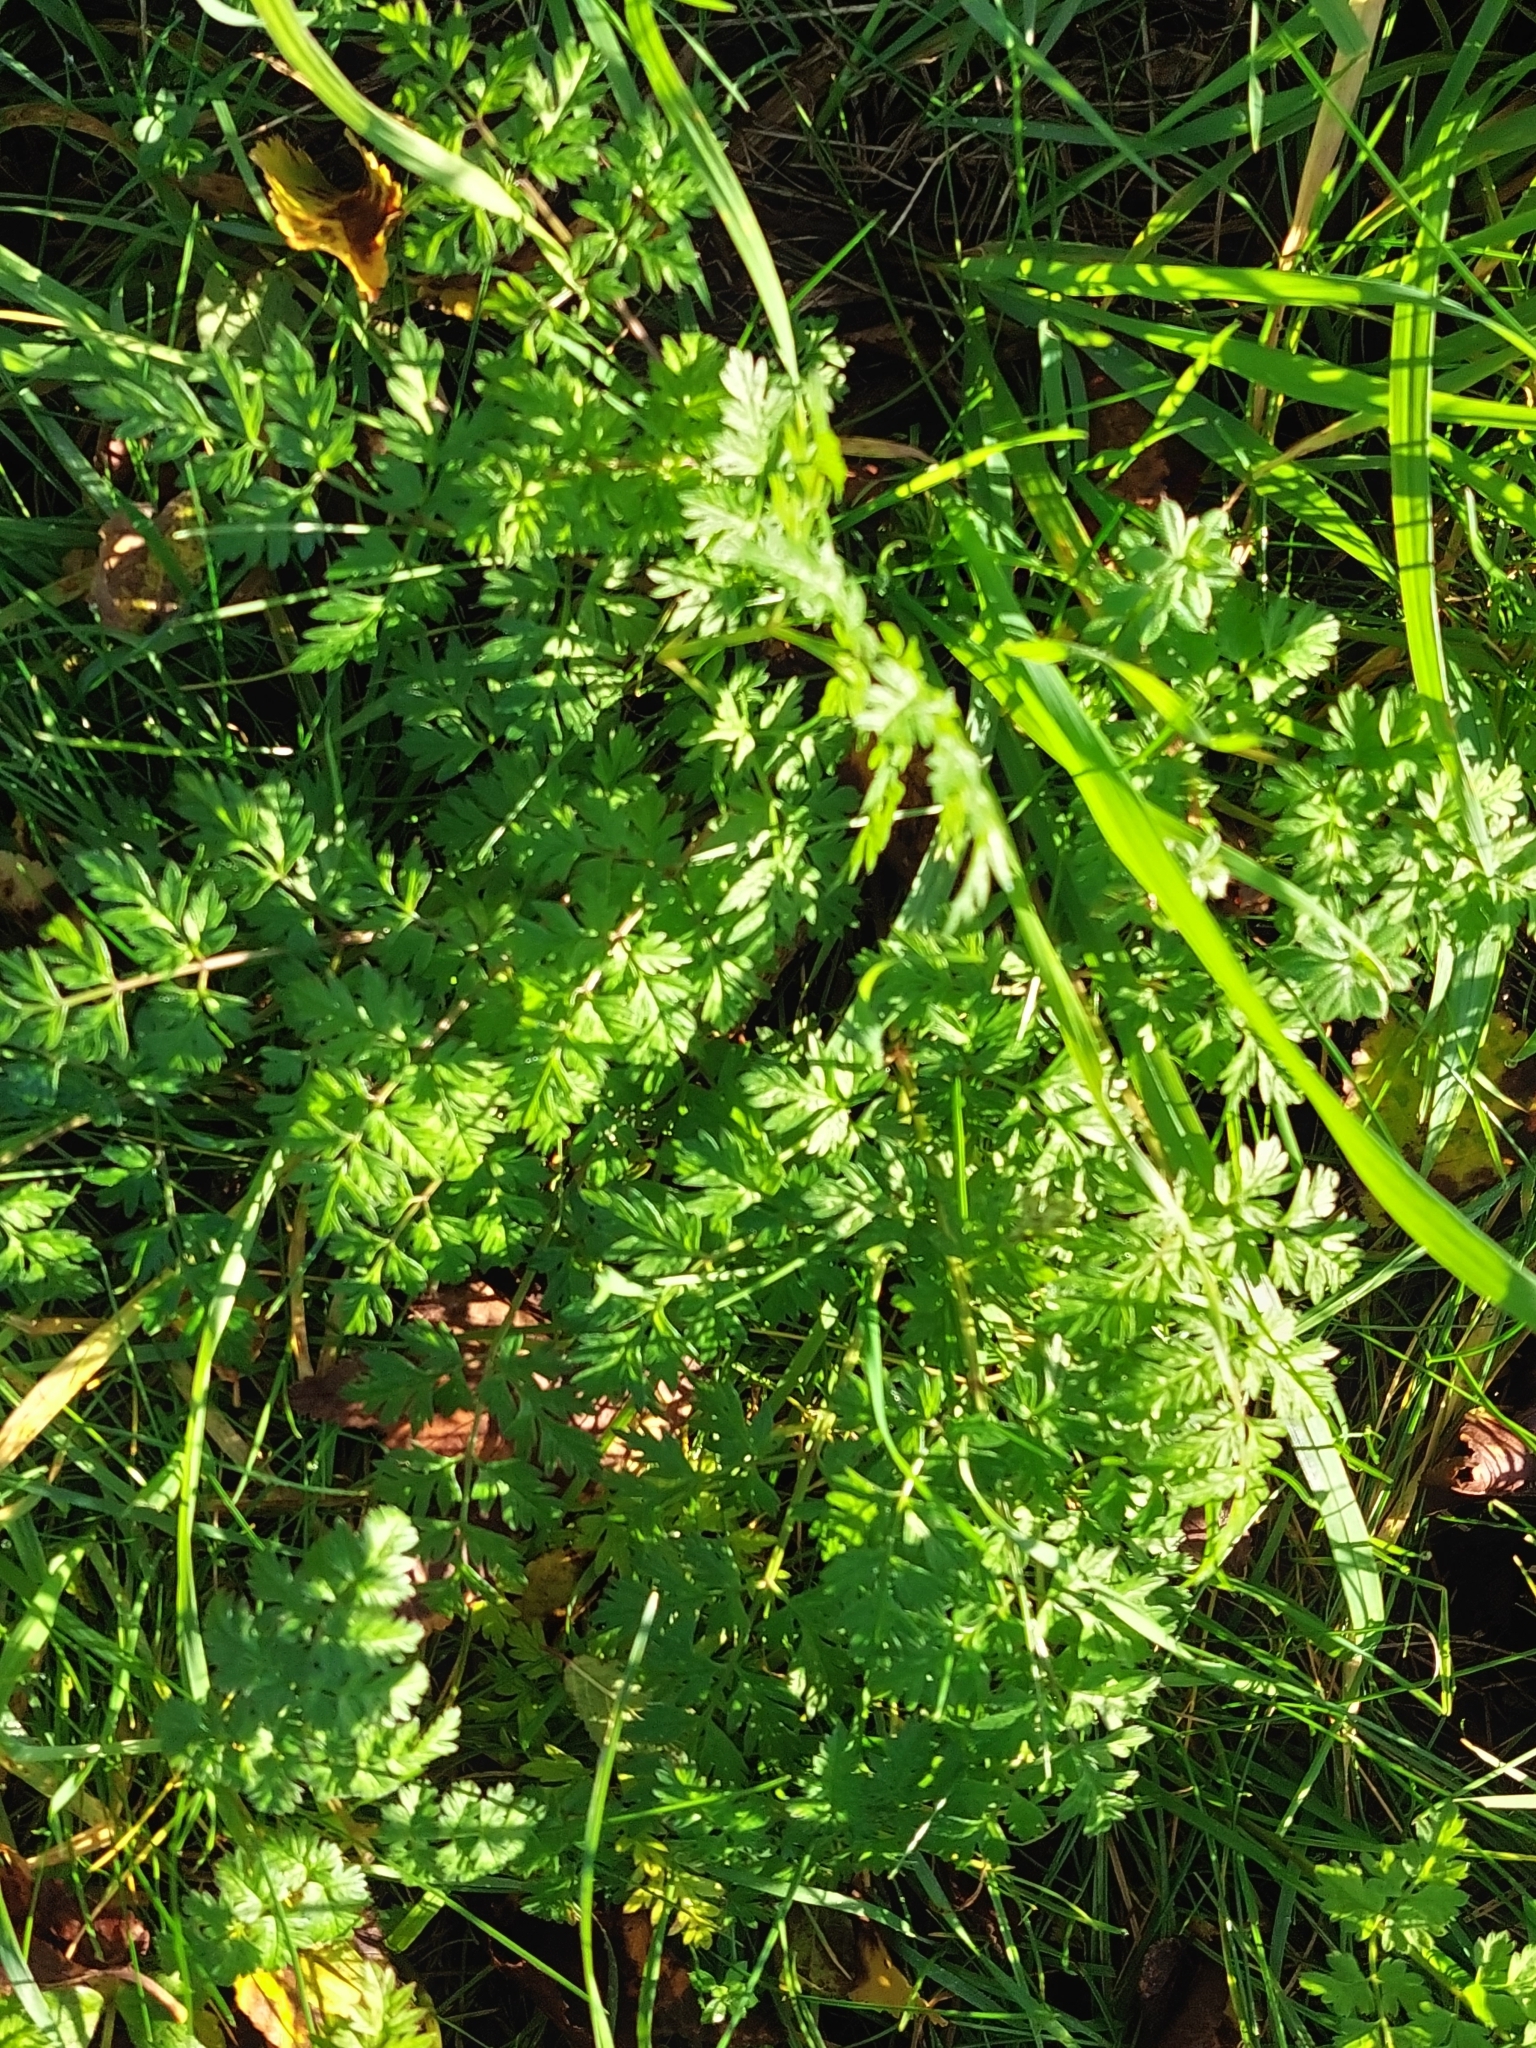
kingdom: Plantae
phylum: Tracheophyta
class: Magnoliopsida
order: Apiales
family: Apiaceae
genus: Anthriscus
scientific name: Anthriscus sylvestris
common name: Cow parsley
